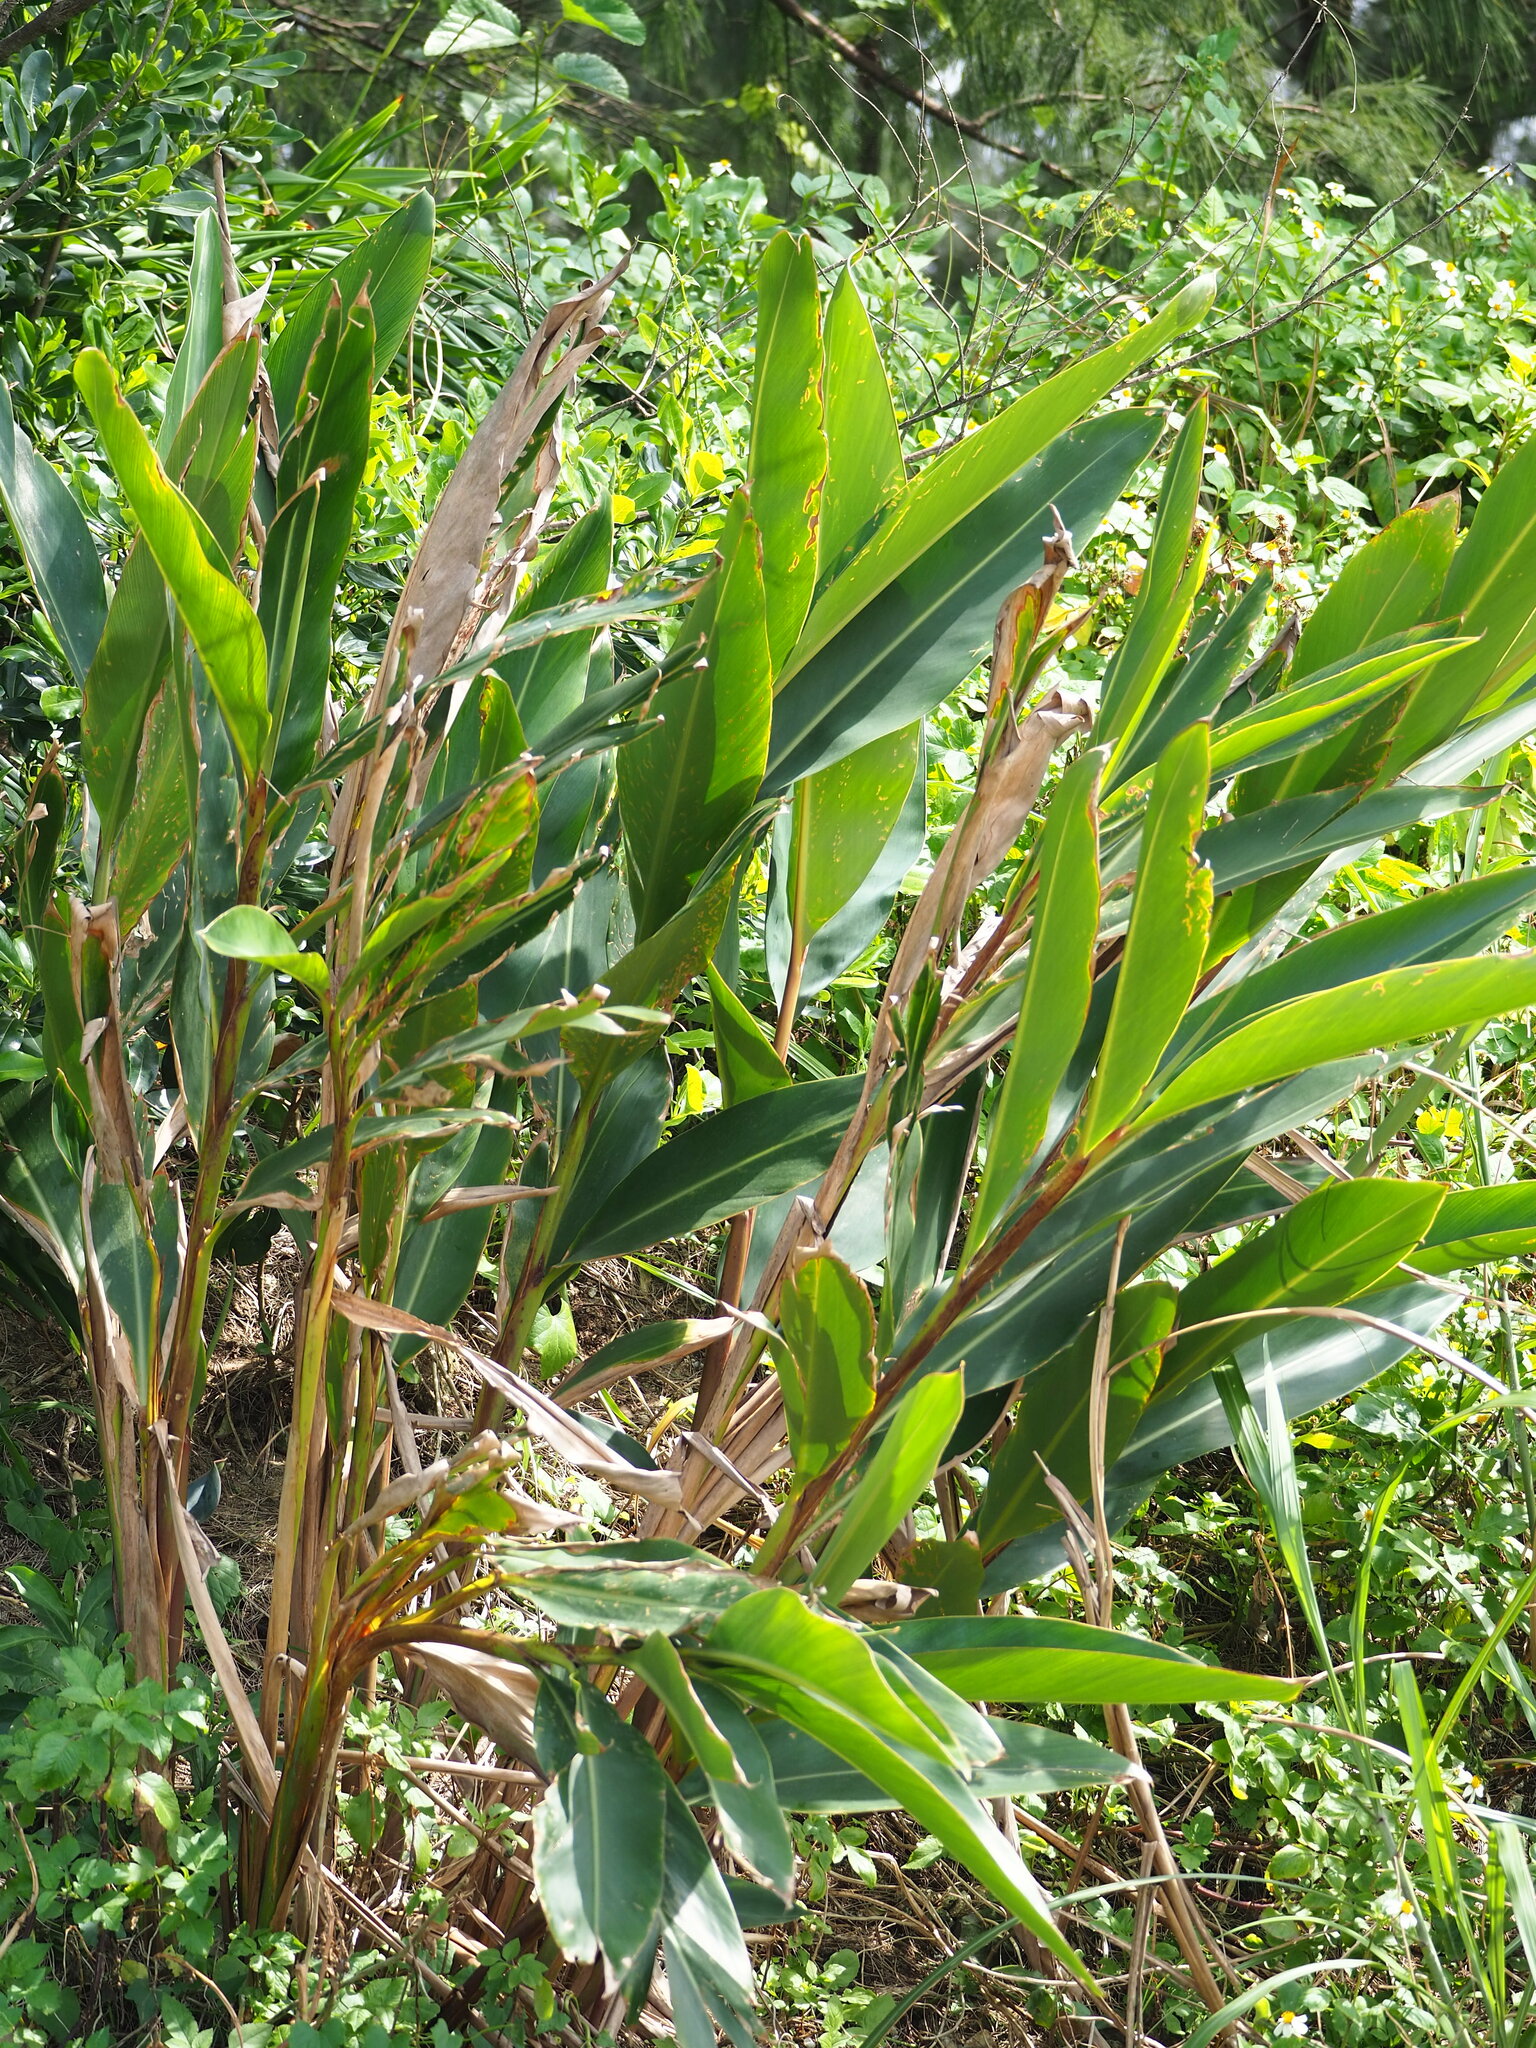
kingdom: Plantae
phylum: Tracheophyta
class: Liliopsida
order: Zingiberales
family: Zingiberaceae
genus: Alpinia
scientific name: Alpinia zerumbet
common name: Shellplant
